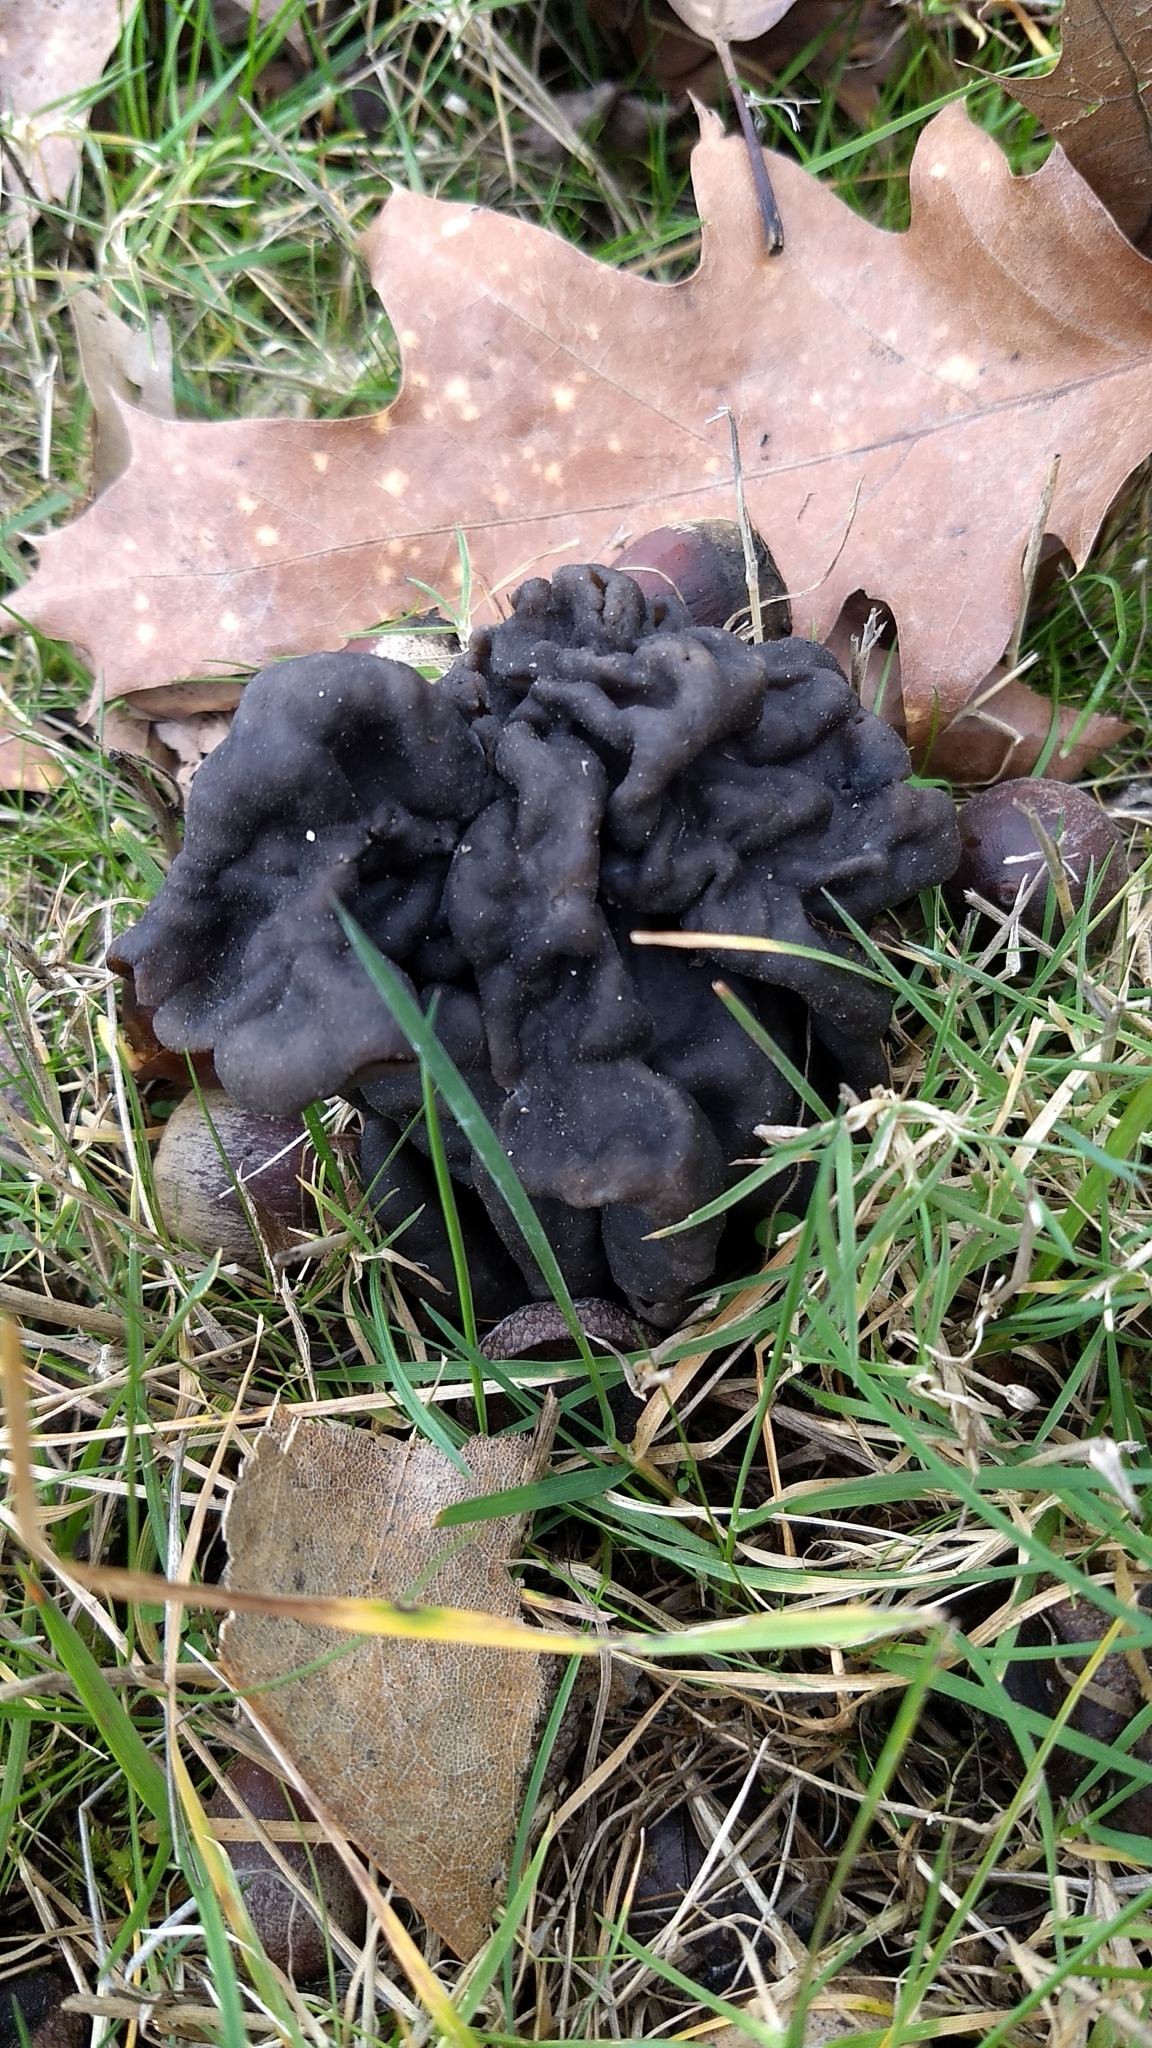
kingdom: Fungi
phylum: Ascomycota
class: Pezizomycetes
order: Pezizales
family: Helvellaceae
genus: Helvella
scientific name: Helvella dryophila
